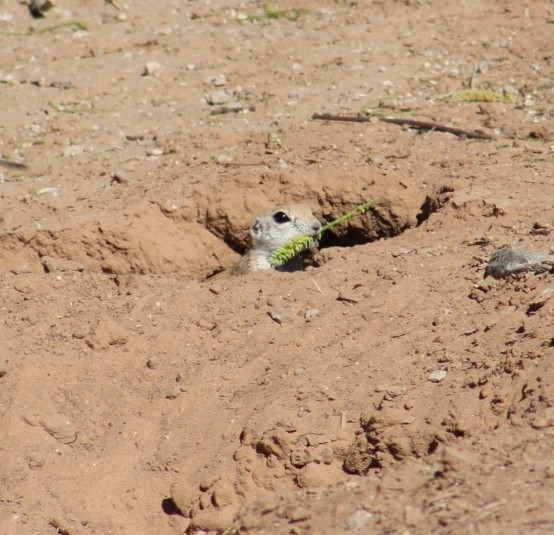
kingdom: Animalia
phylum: Chordata
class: Mammalia
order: Rodentia
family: Sciuridae
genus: Xerospermophilus
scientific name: Xerospermophilus tereticaudus
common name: Round-tailed ground squirrel
